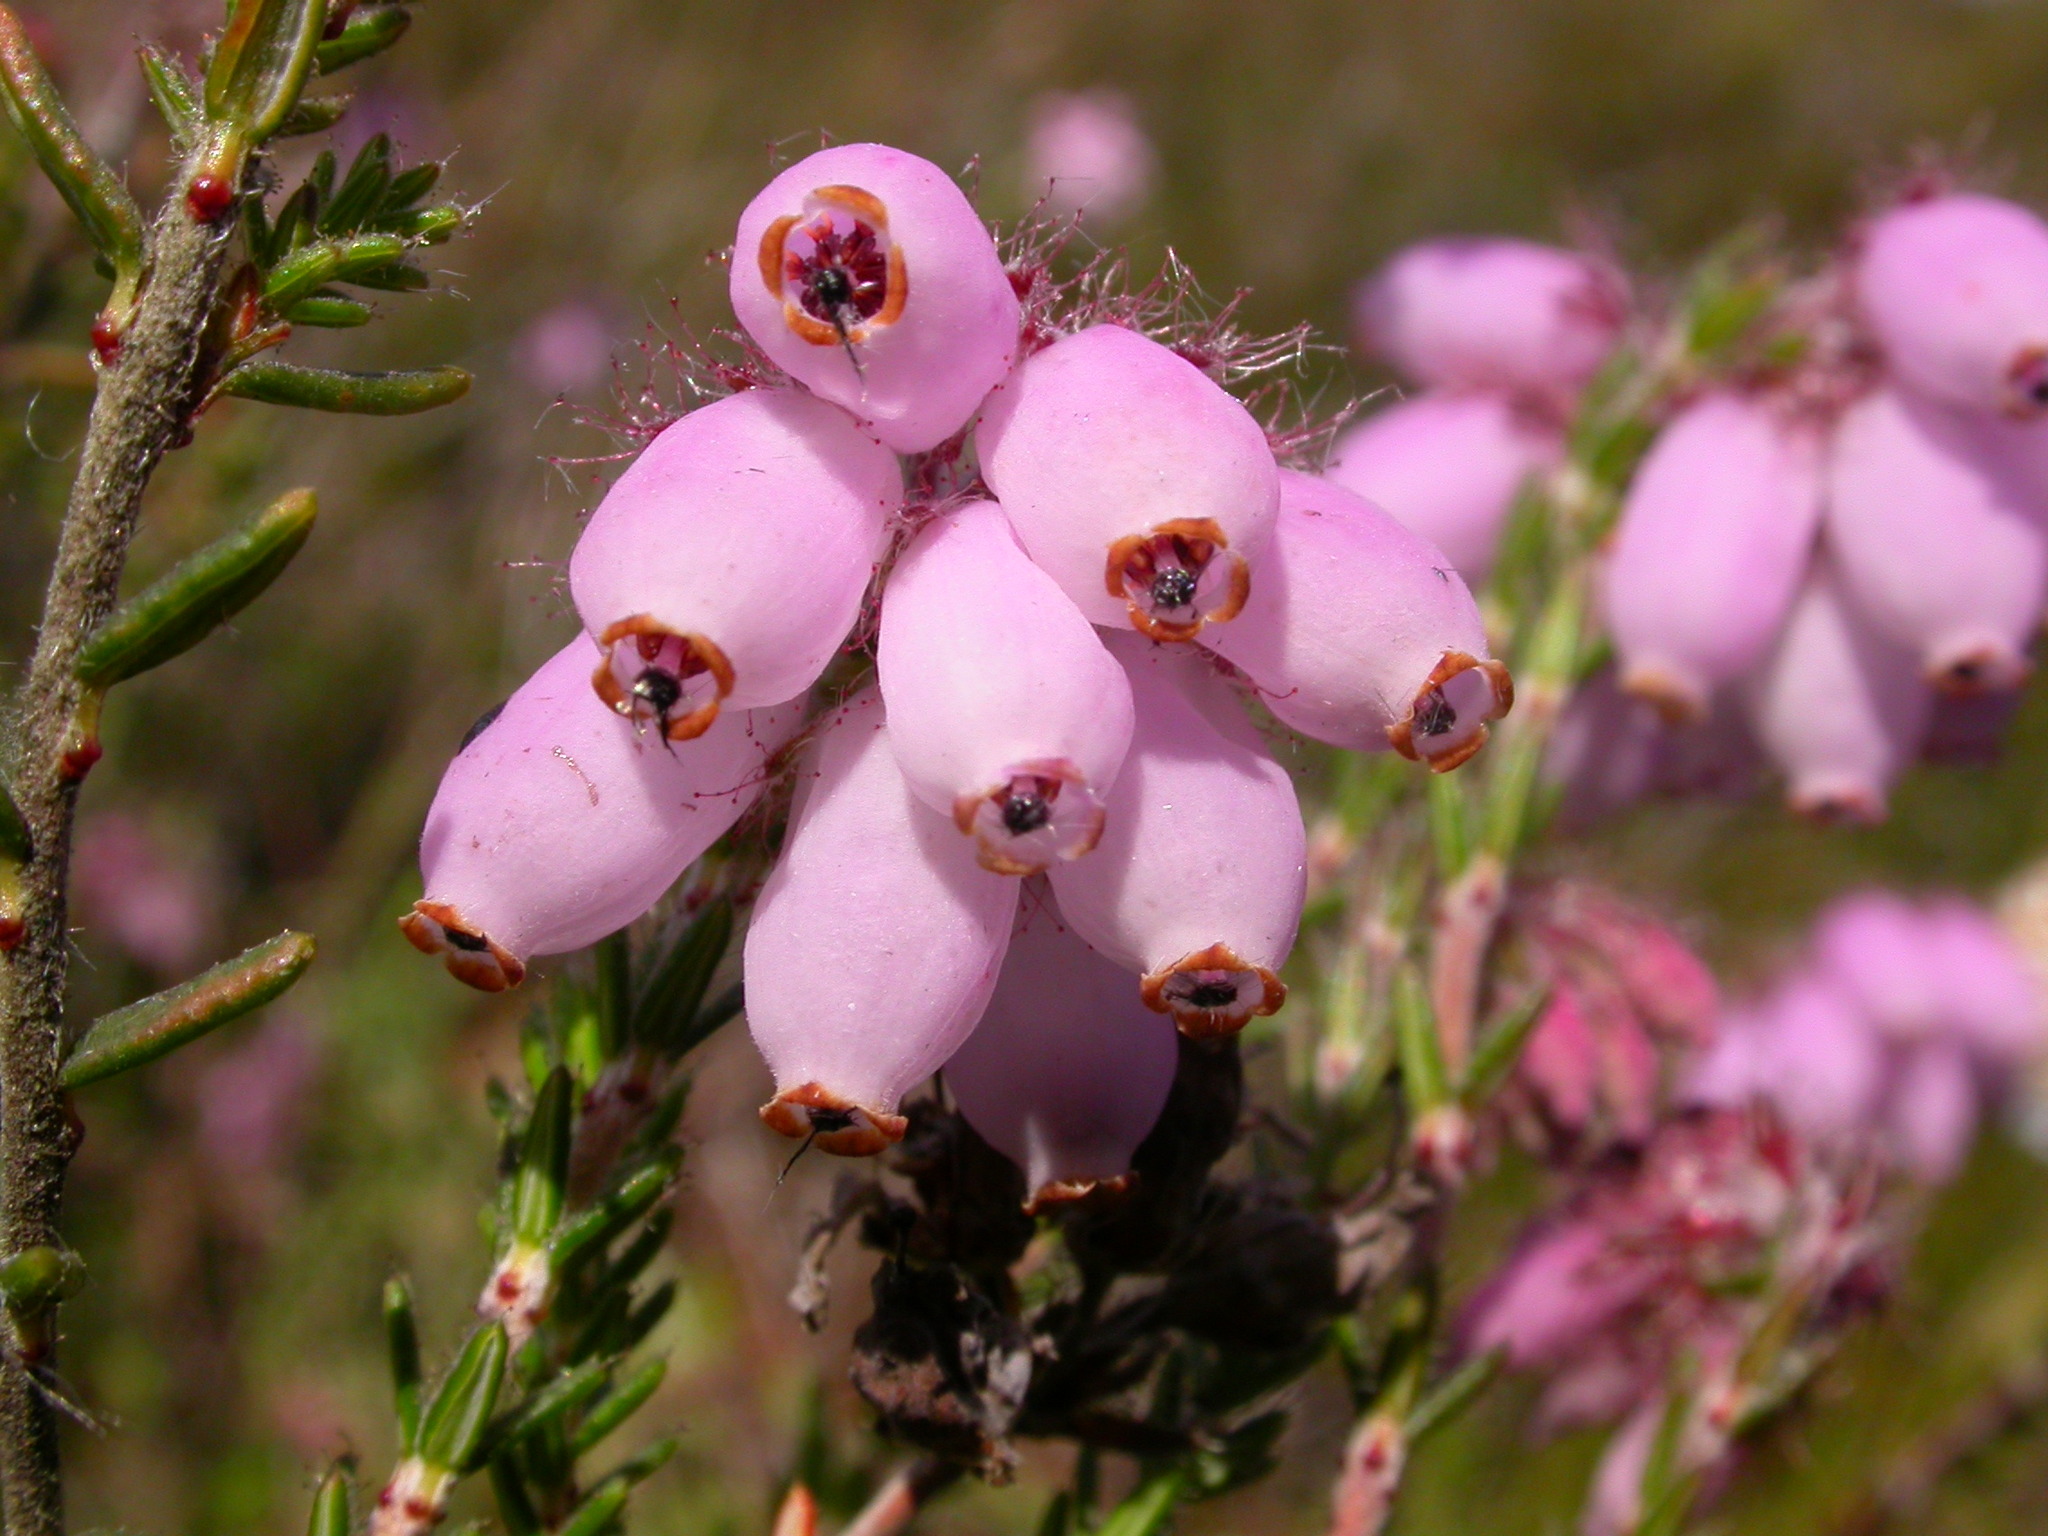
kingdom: Plantae
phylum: Tracheophyta
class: Magnoliopsida
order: Ericales
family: Ericaceae
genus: Erica
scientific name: Erica tetralix
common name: Cross-leaved heath
